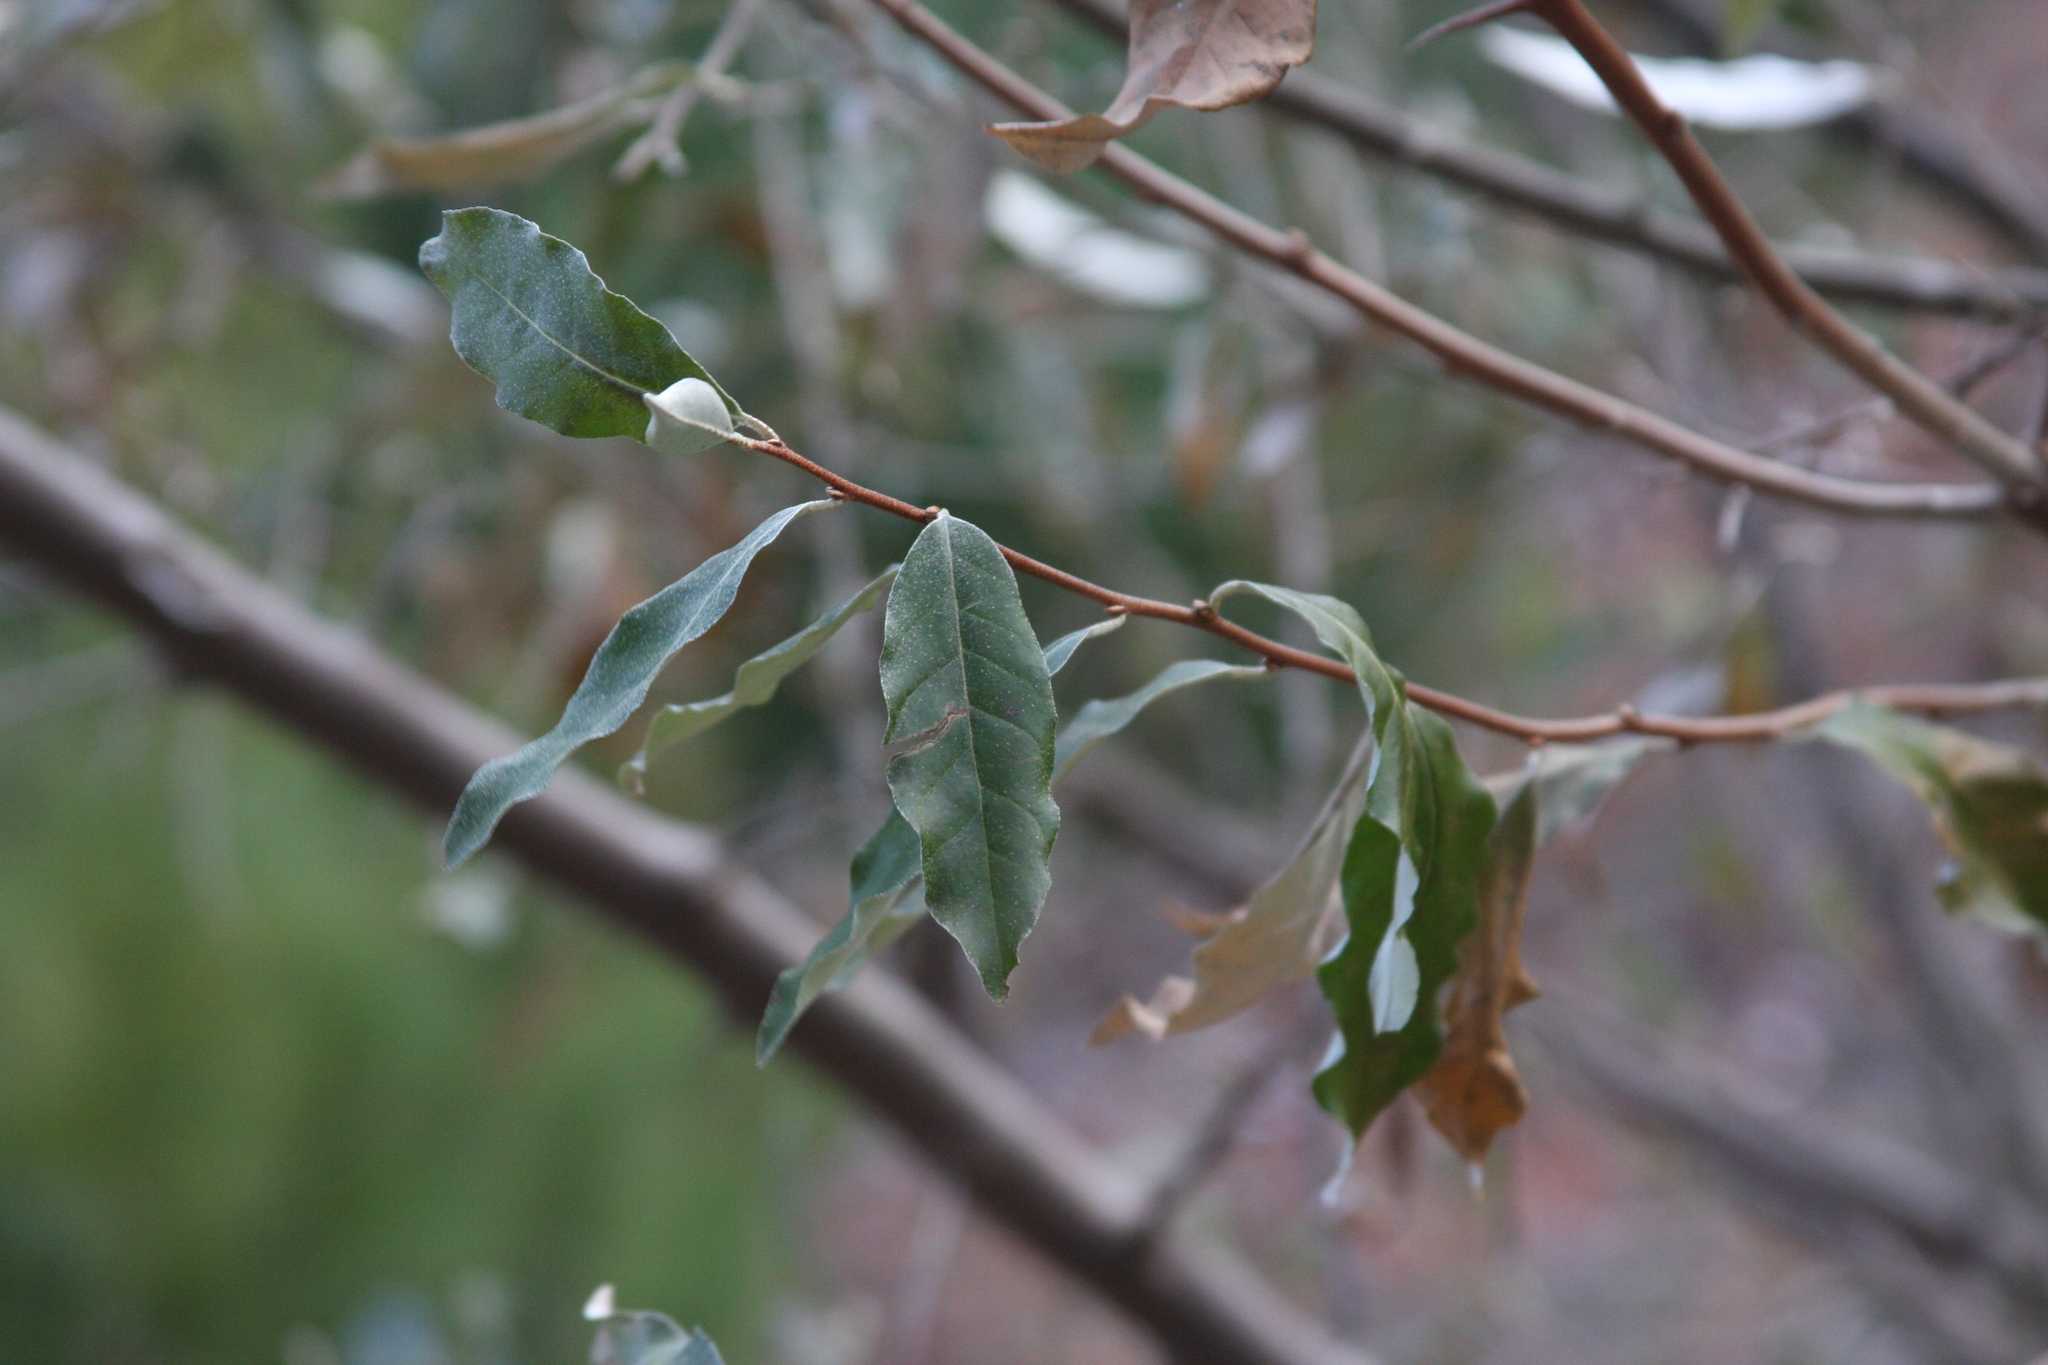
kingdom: Plantae
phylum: Tracheophyta
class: Magnoliopsida
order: Rosales
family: Elaeagnaceae
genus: Elaeagnus
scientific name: Elaeagnus umbellata
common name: Autumn olive
